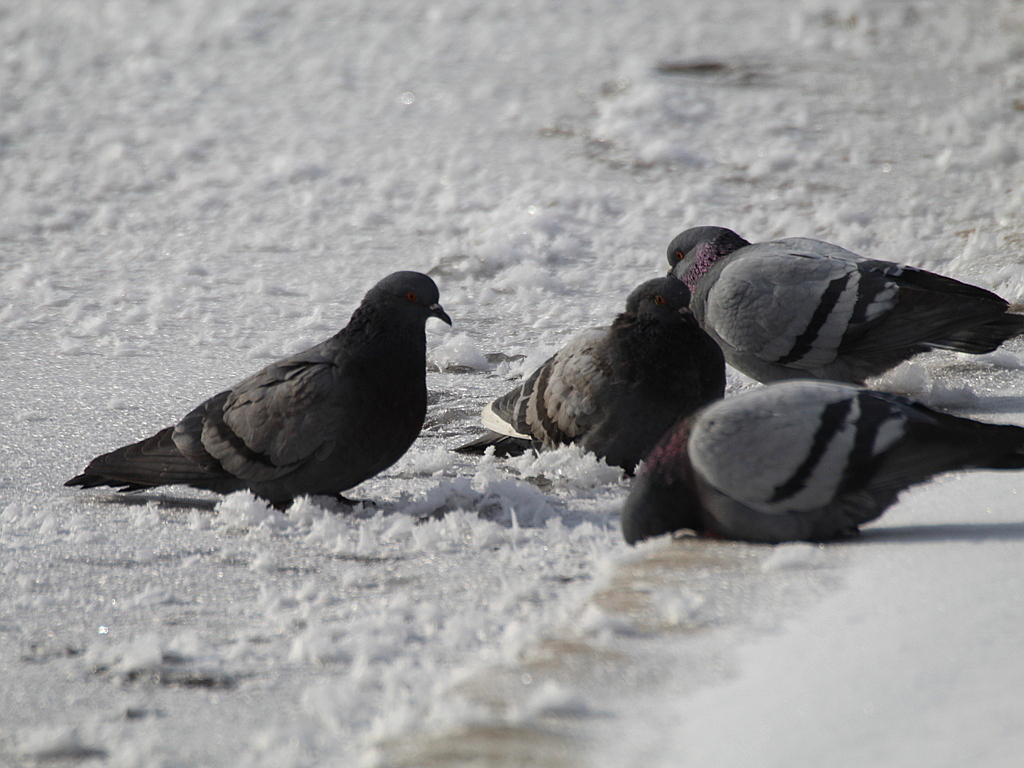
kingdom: Animalia
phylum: Chordata
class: Aves
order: Columbiformes
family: Columbidae
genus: Columba
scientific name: Columba livia
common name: Rock pigeon
